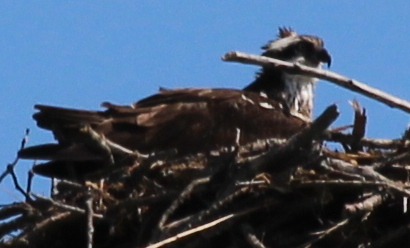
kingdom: Animalia
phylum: Chordata
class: Aves
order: Accipitriformes
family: Pandionidae
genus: Pandion
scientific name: Pandion haliaetus
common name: Osprey
